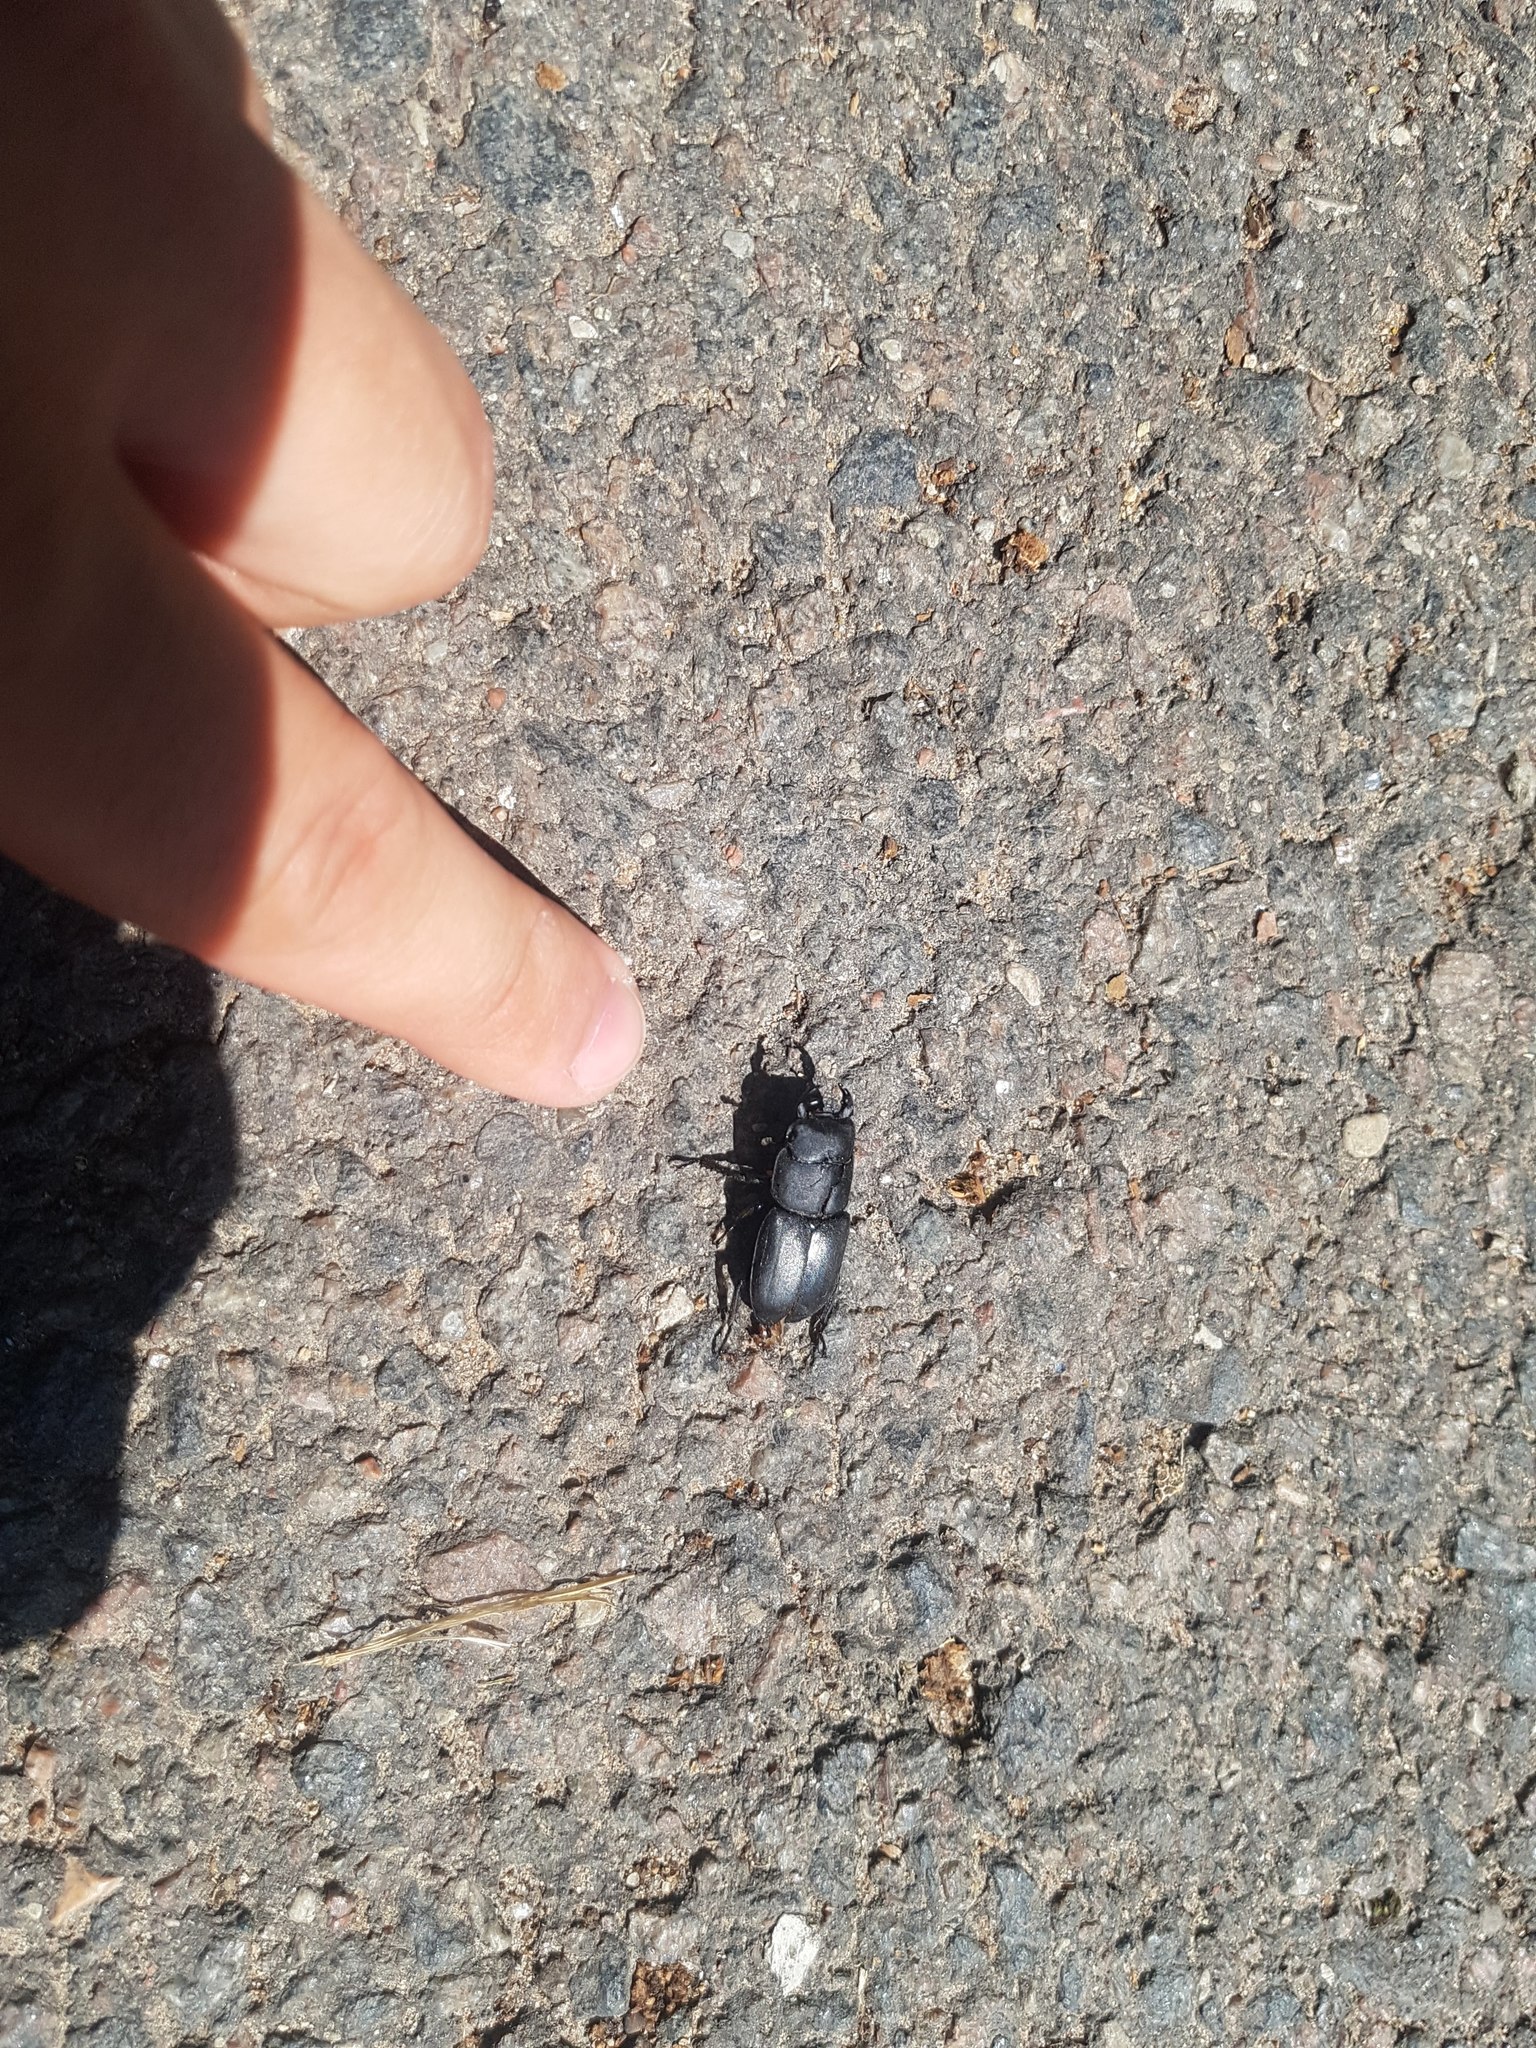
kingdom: Animalia
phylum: Arthropoda
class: Insecta
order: Coleoptera
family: Lucanidae
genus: Dorcus
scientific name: Dorcus parallelipipedus
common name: Lesser stag beetle
